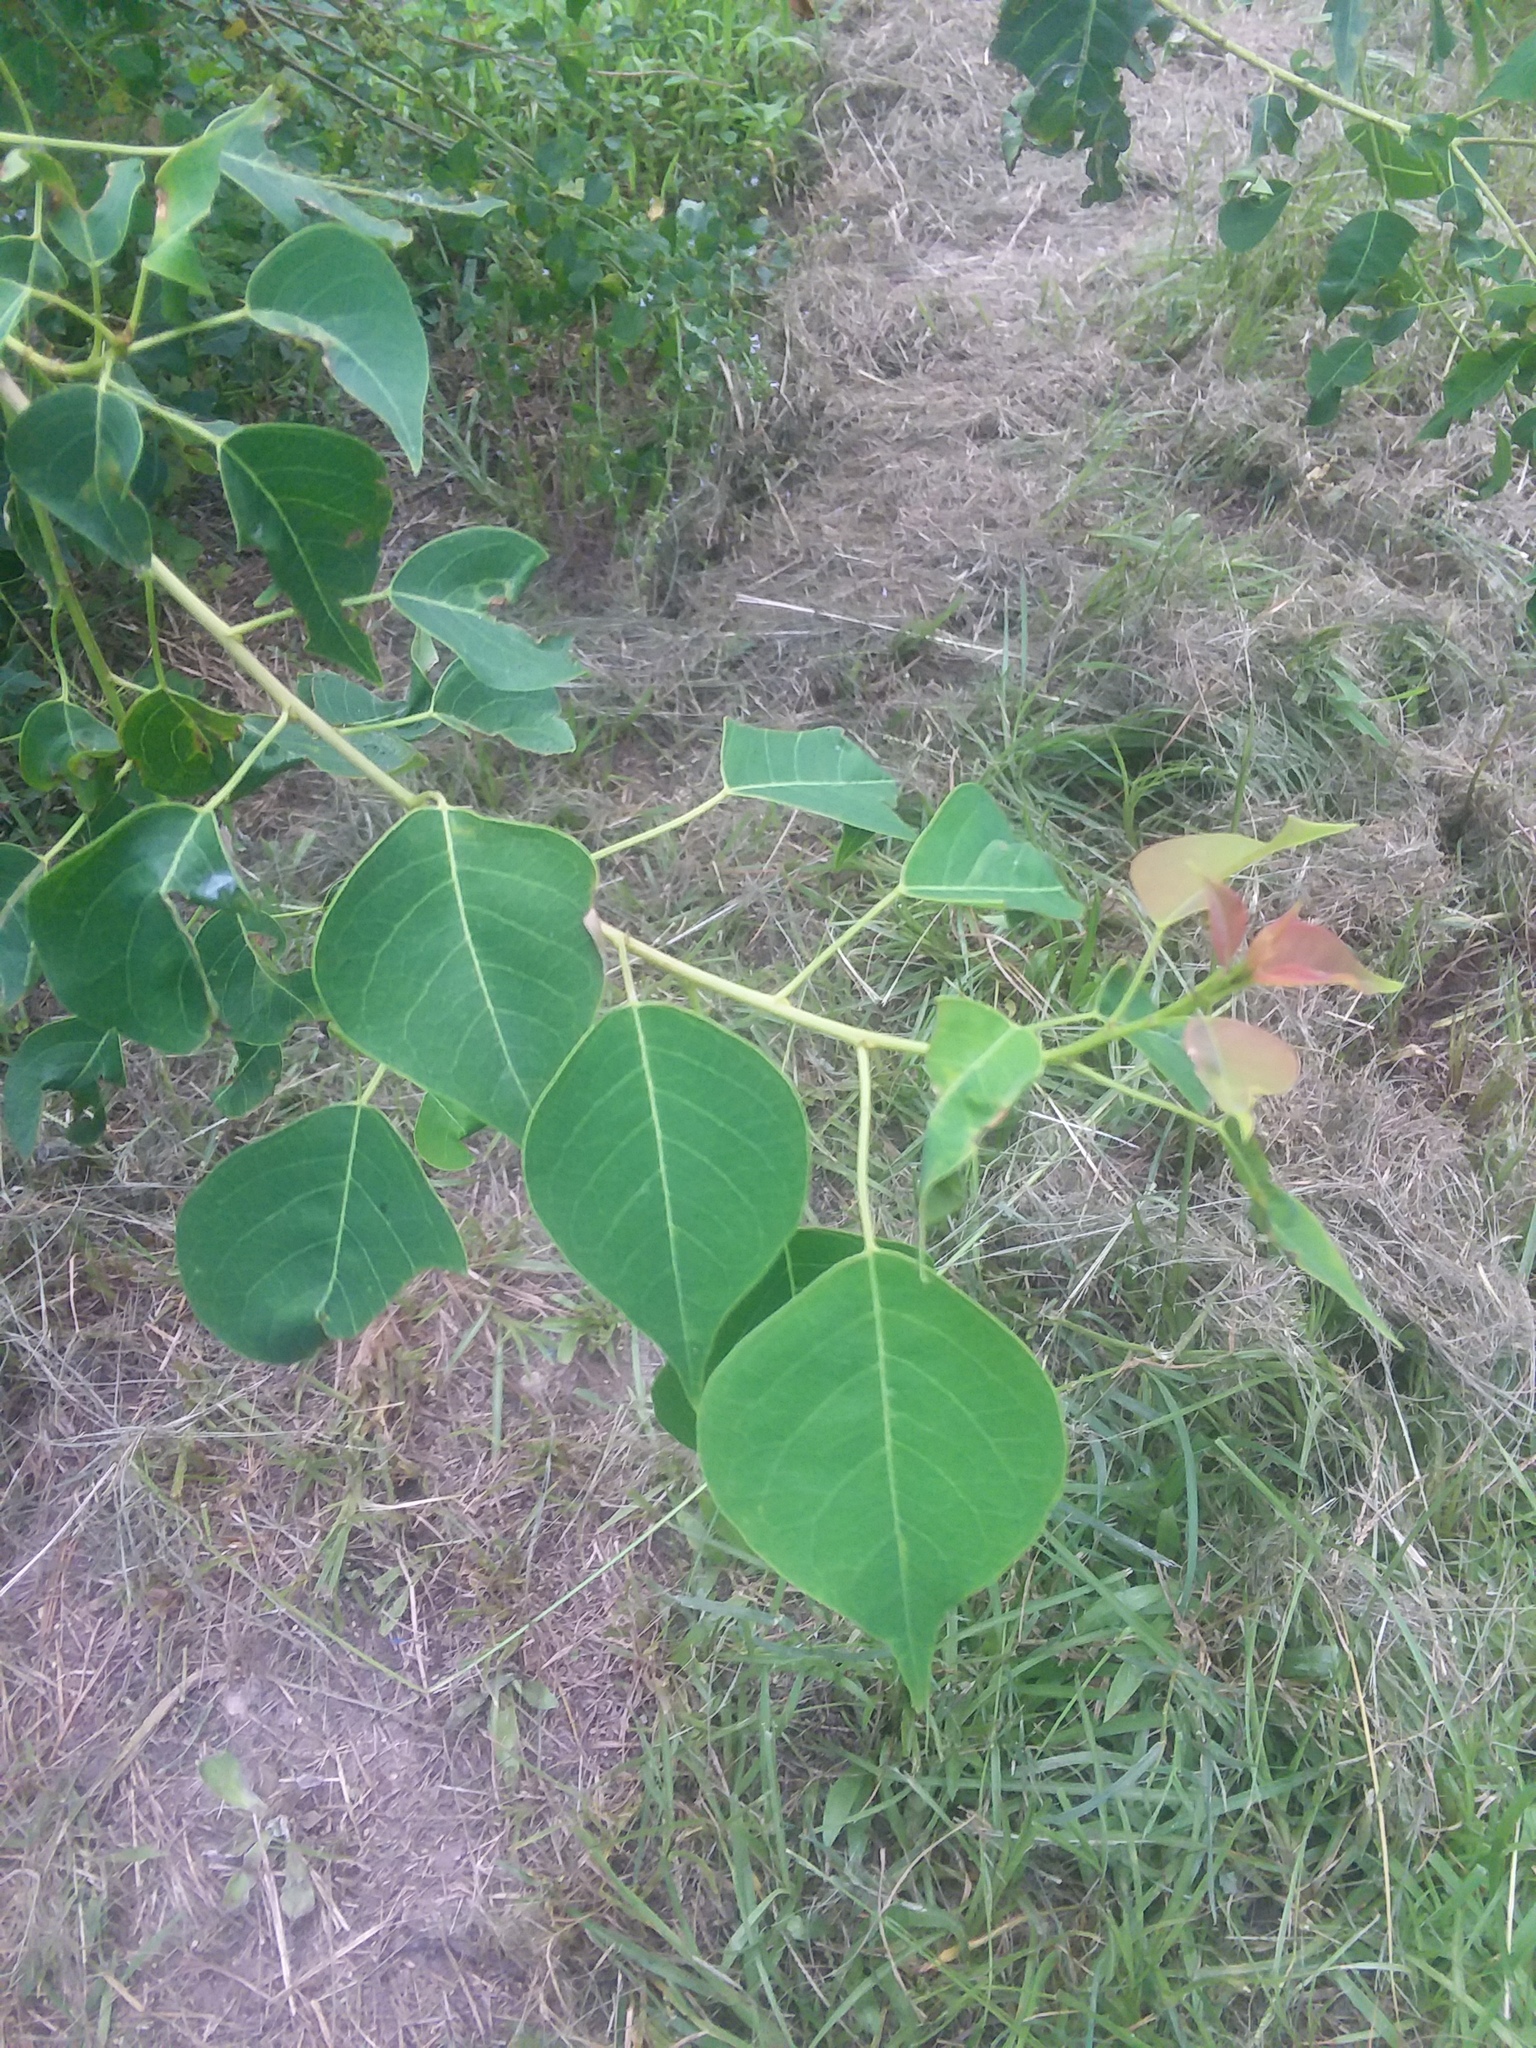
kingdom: Plantae
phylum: Tracheophyta
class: Magnoliopsida
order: Malpighiales
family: Euphorbiaceae
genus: Triadica
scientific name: Triadica sebifera
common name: Chinese tallow
